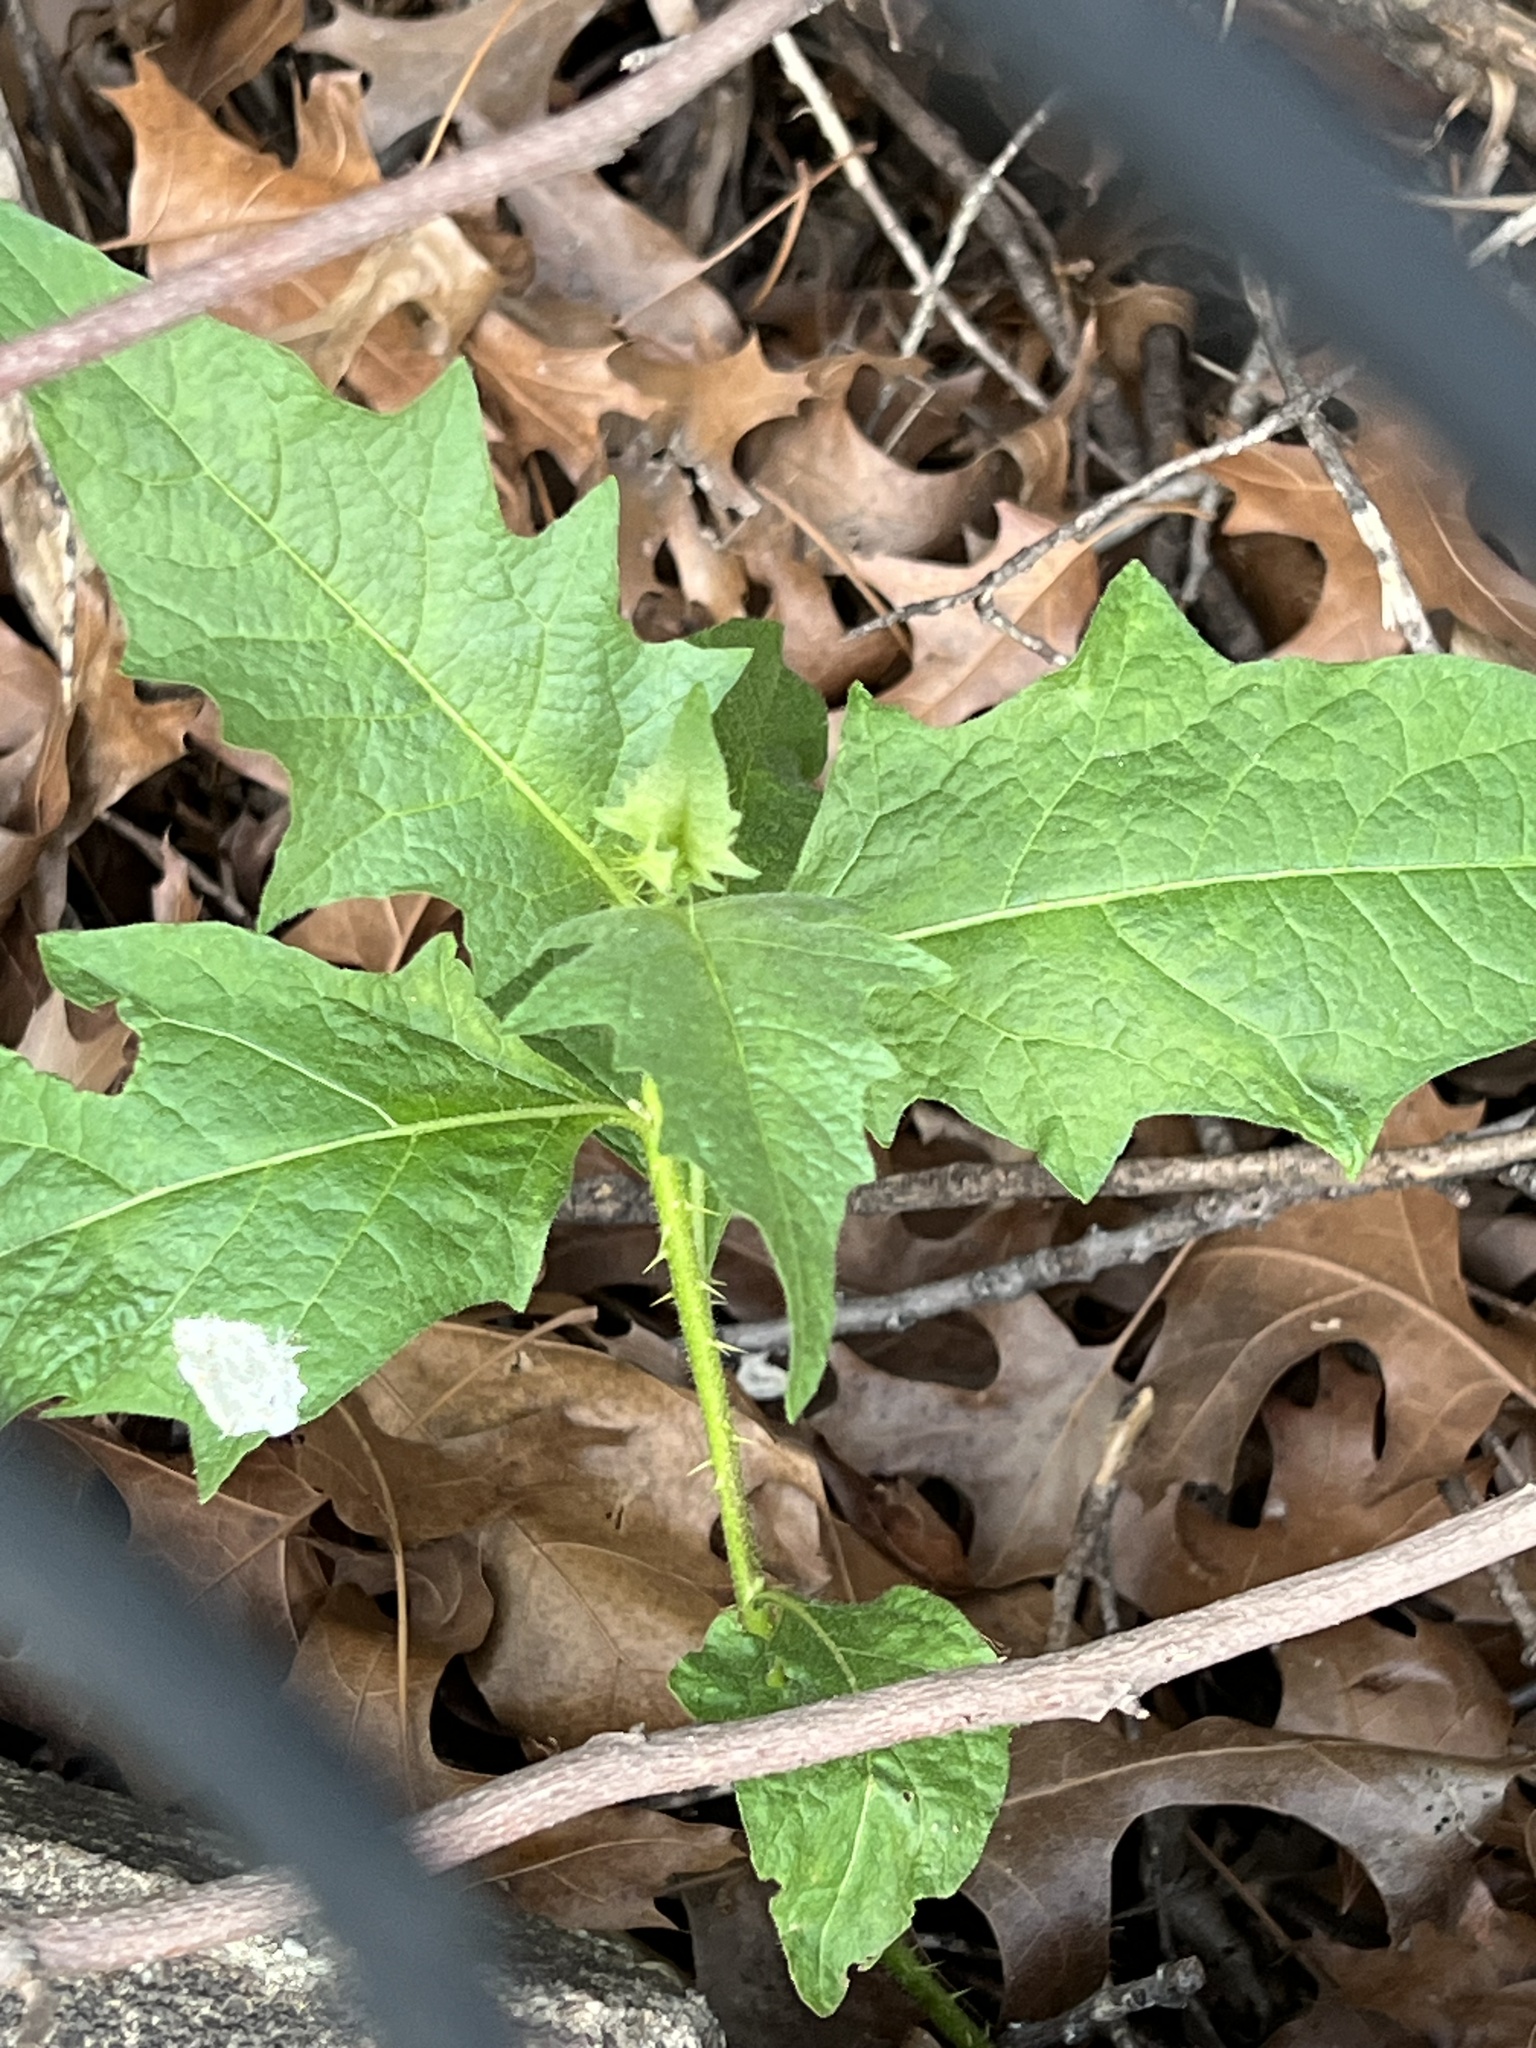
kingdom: Plantae
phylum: Tracheophyta
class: Magnoliopsida
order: Solanales
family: Solanaceae
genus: Solanum
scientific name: Solanum carolinense
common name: Horse-nettle
